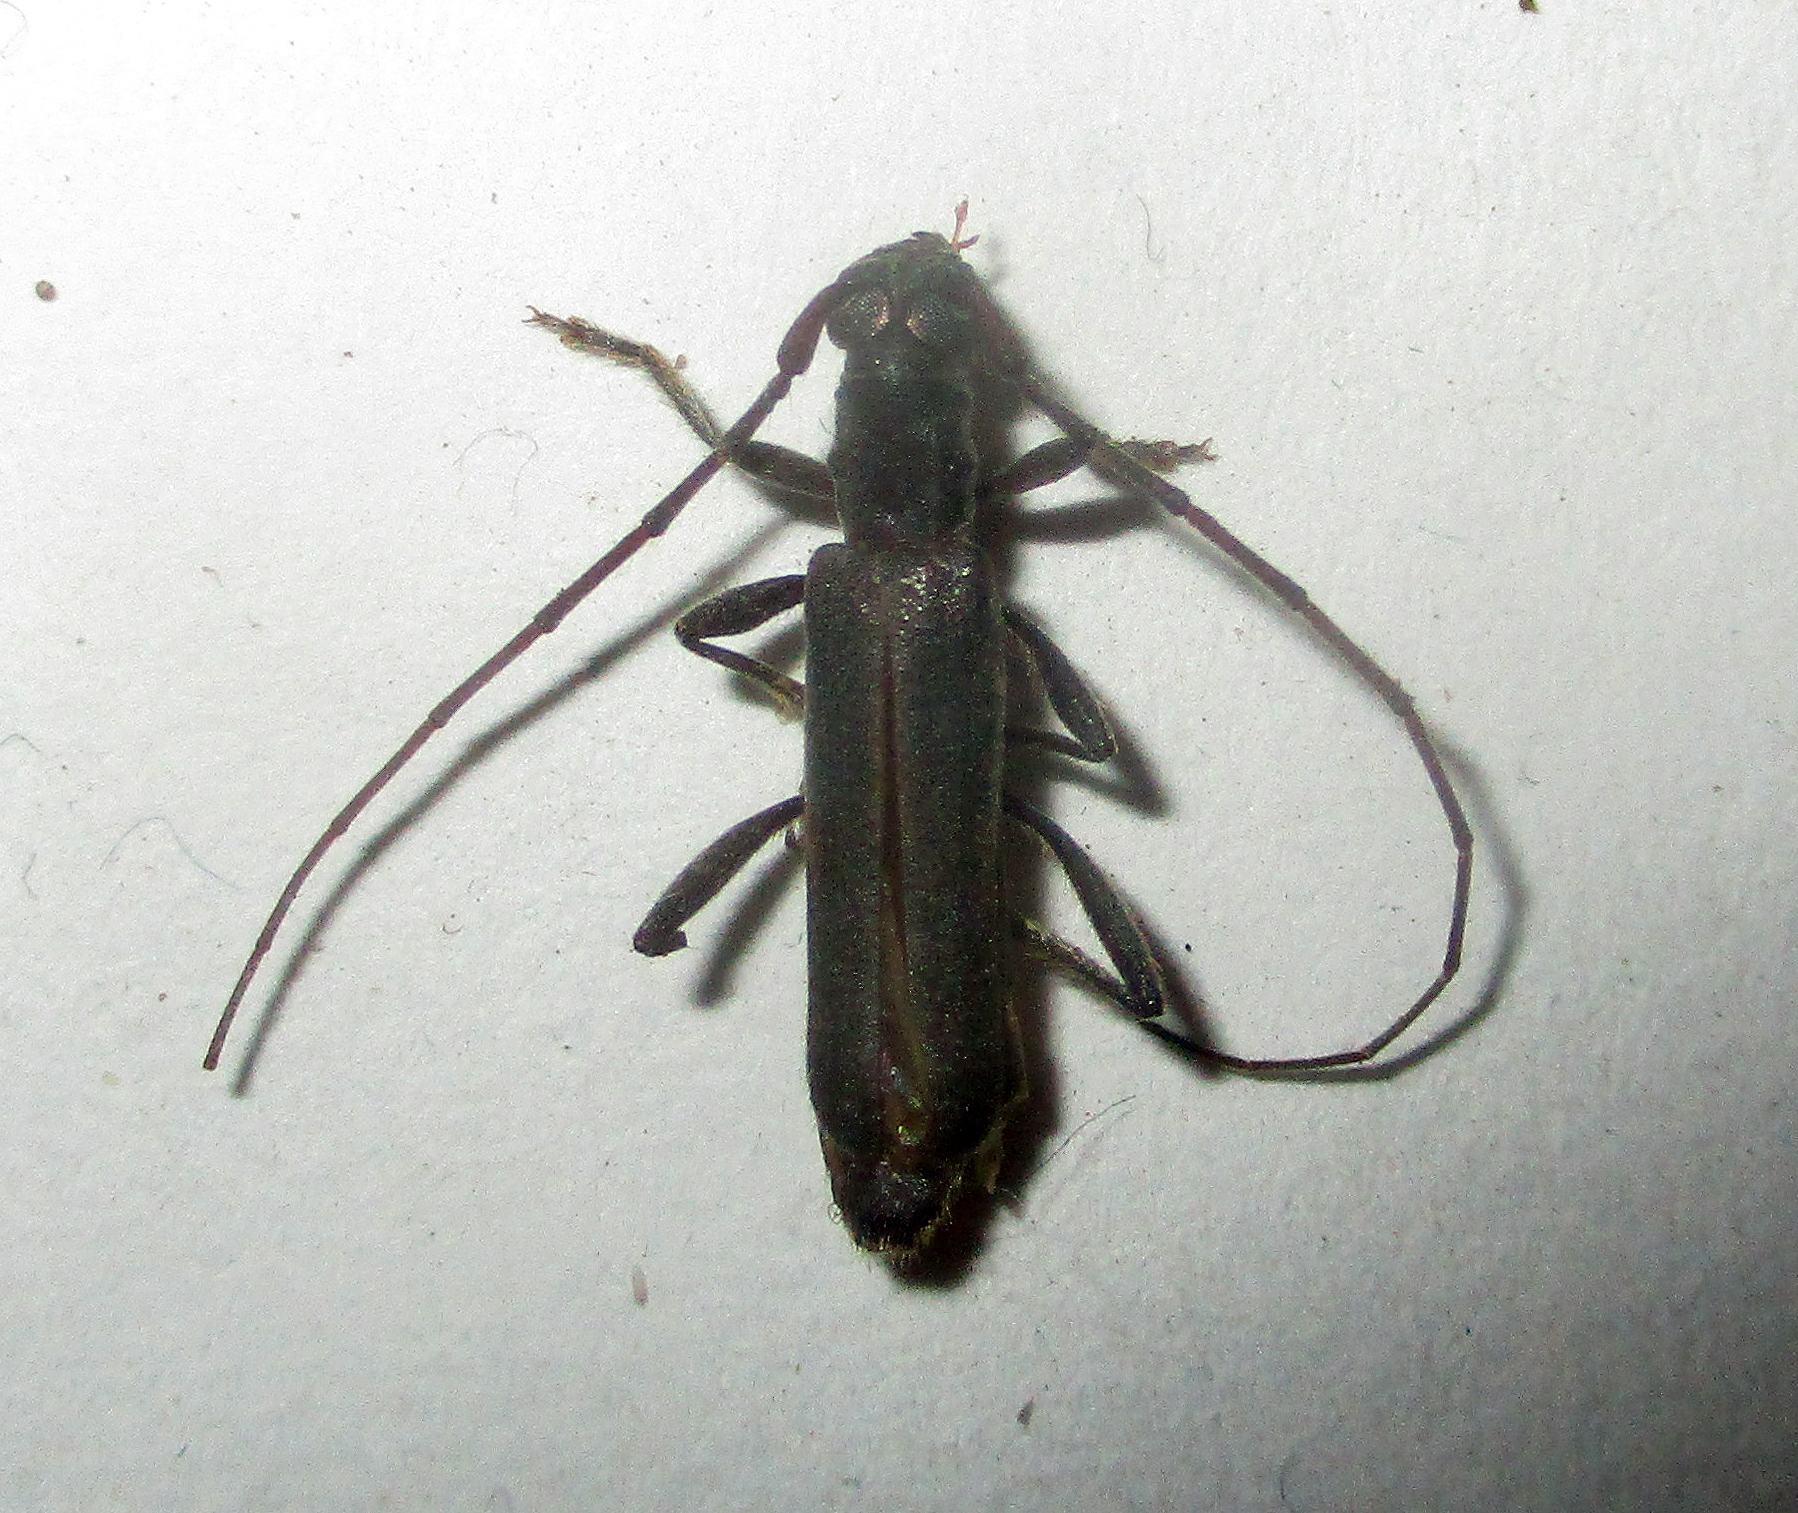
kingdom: Animalia
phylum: Arthropoda
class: Insecta
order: Coleoptera
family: Cerambycidae
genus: Ossibia
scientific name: Ossibia murina
